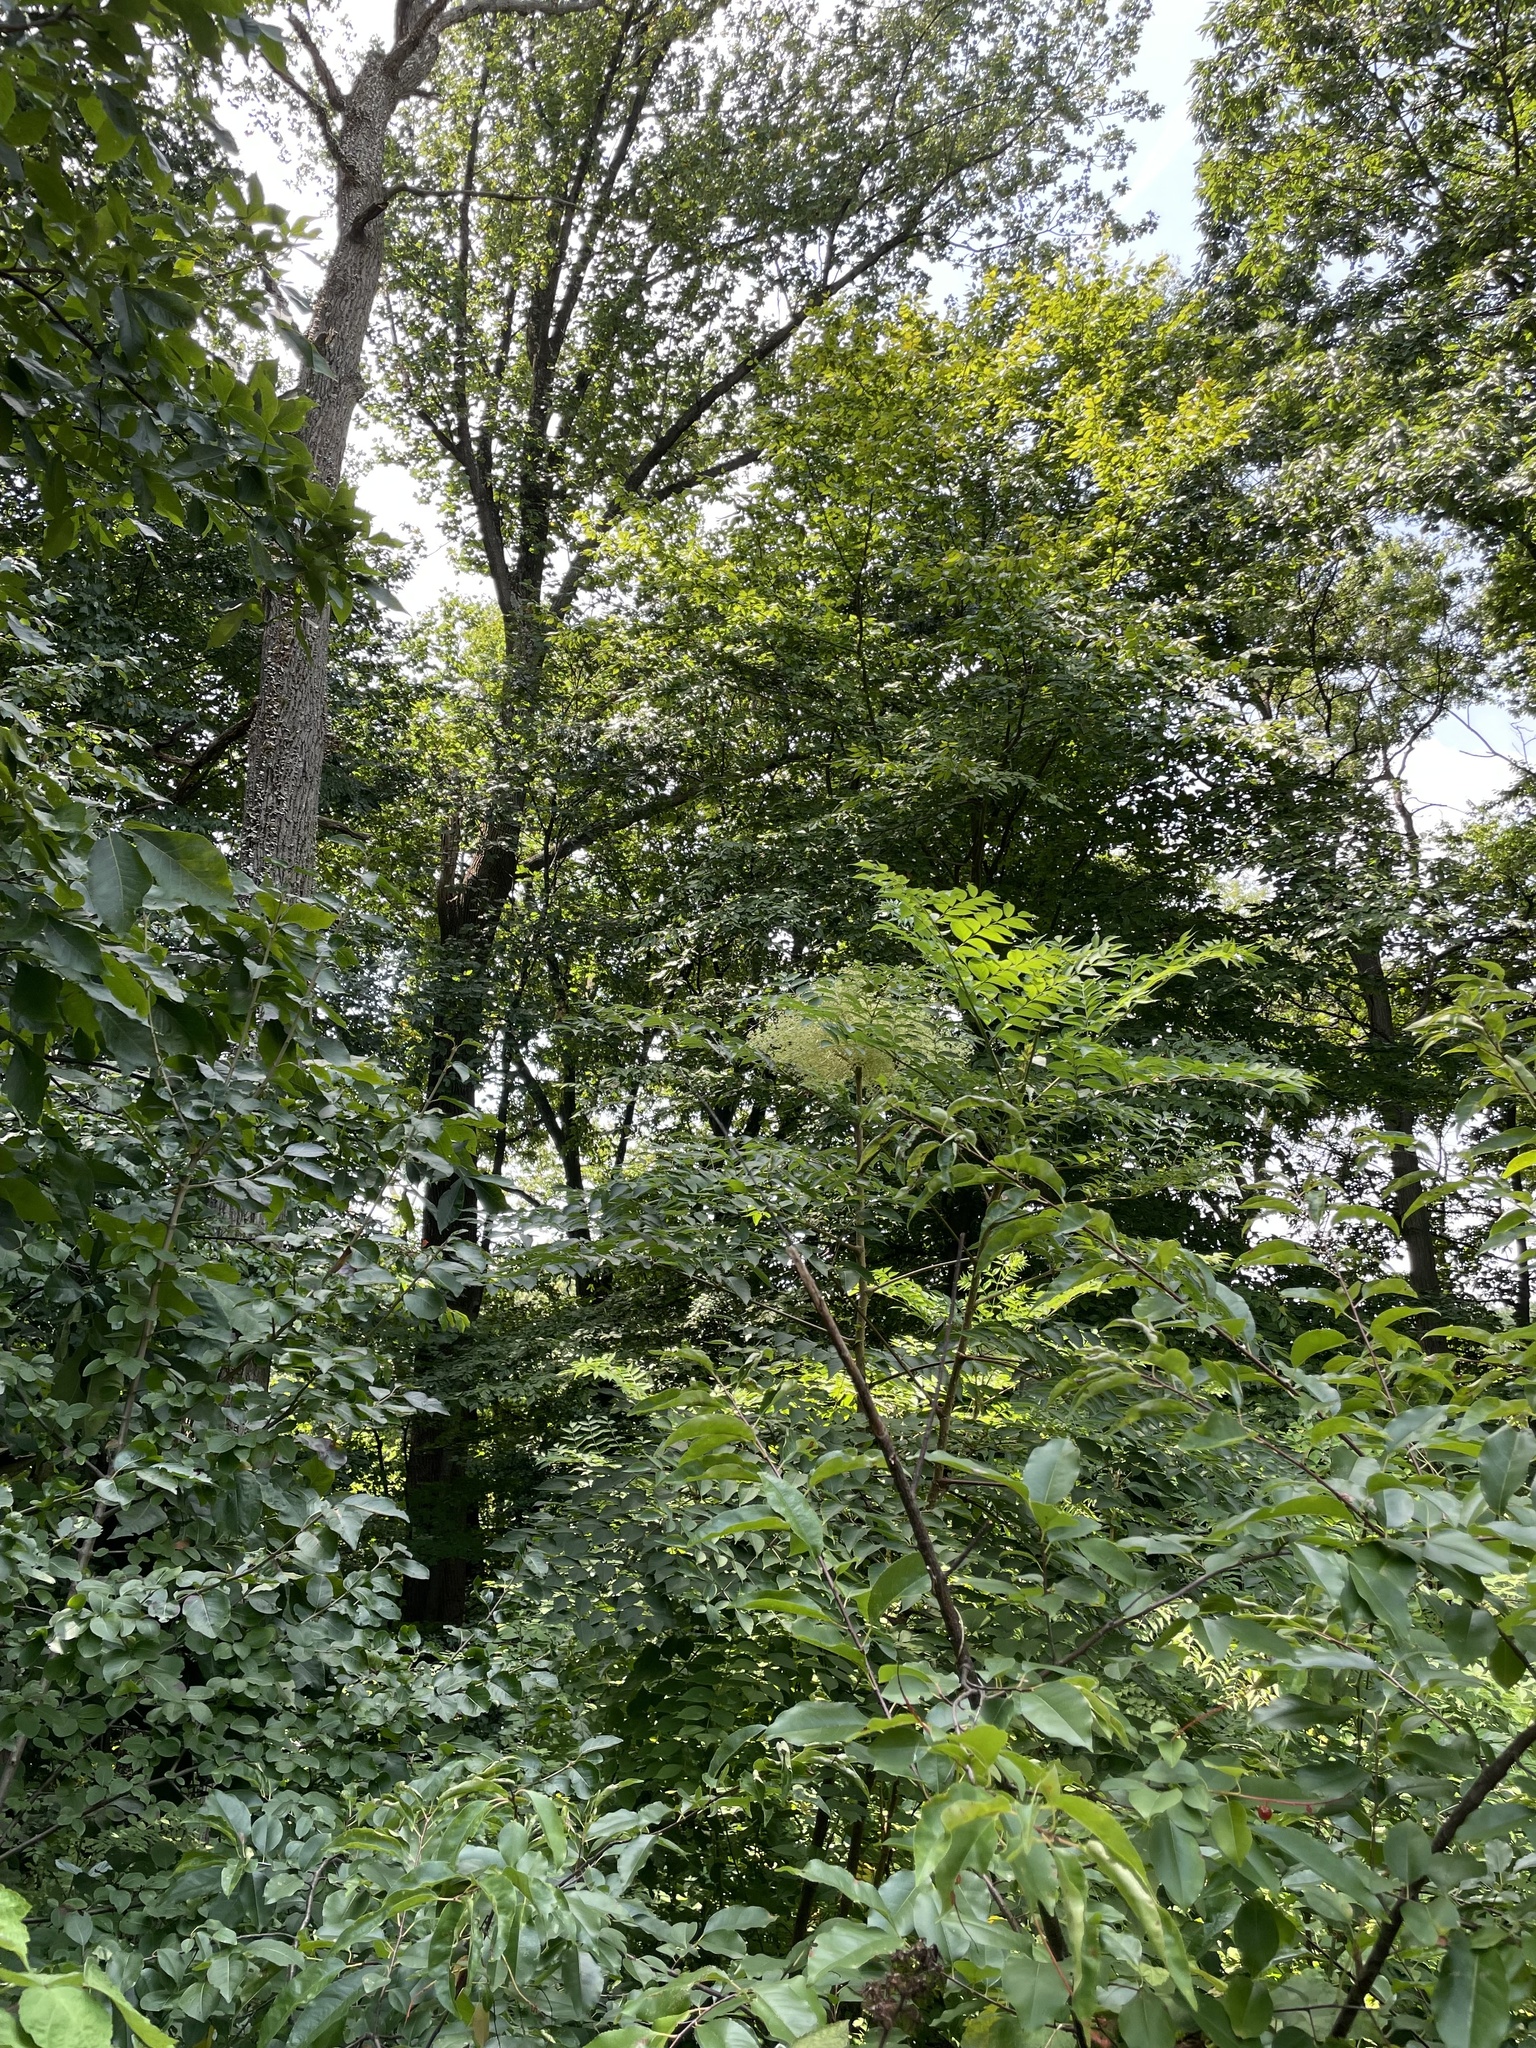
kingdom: Plantae
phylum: Tracheophyta
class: Magnoliopsida
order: Apiales
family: Araliaceae
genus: Aralia
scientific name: Aralia elata
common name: Japanese angelica-tree
